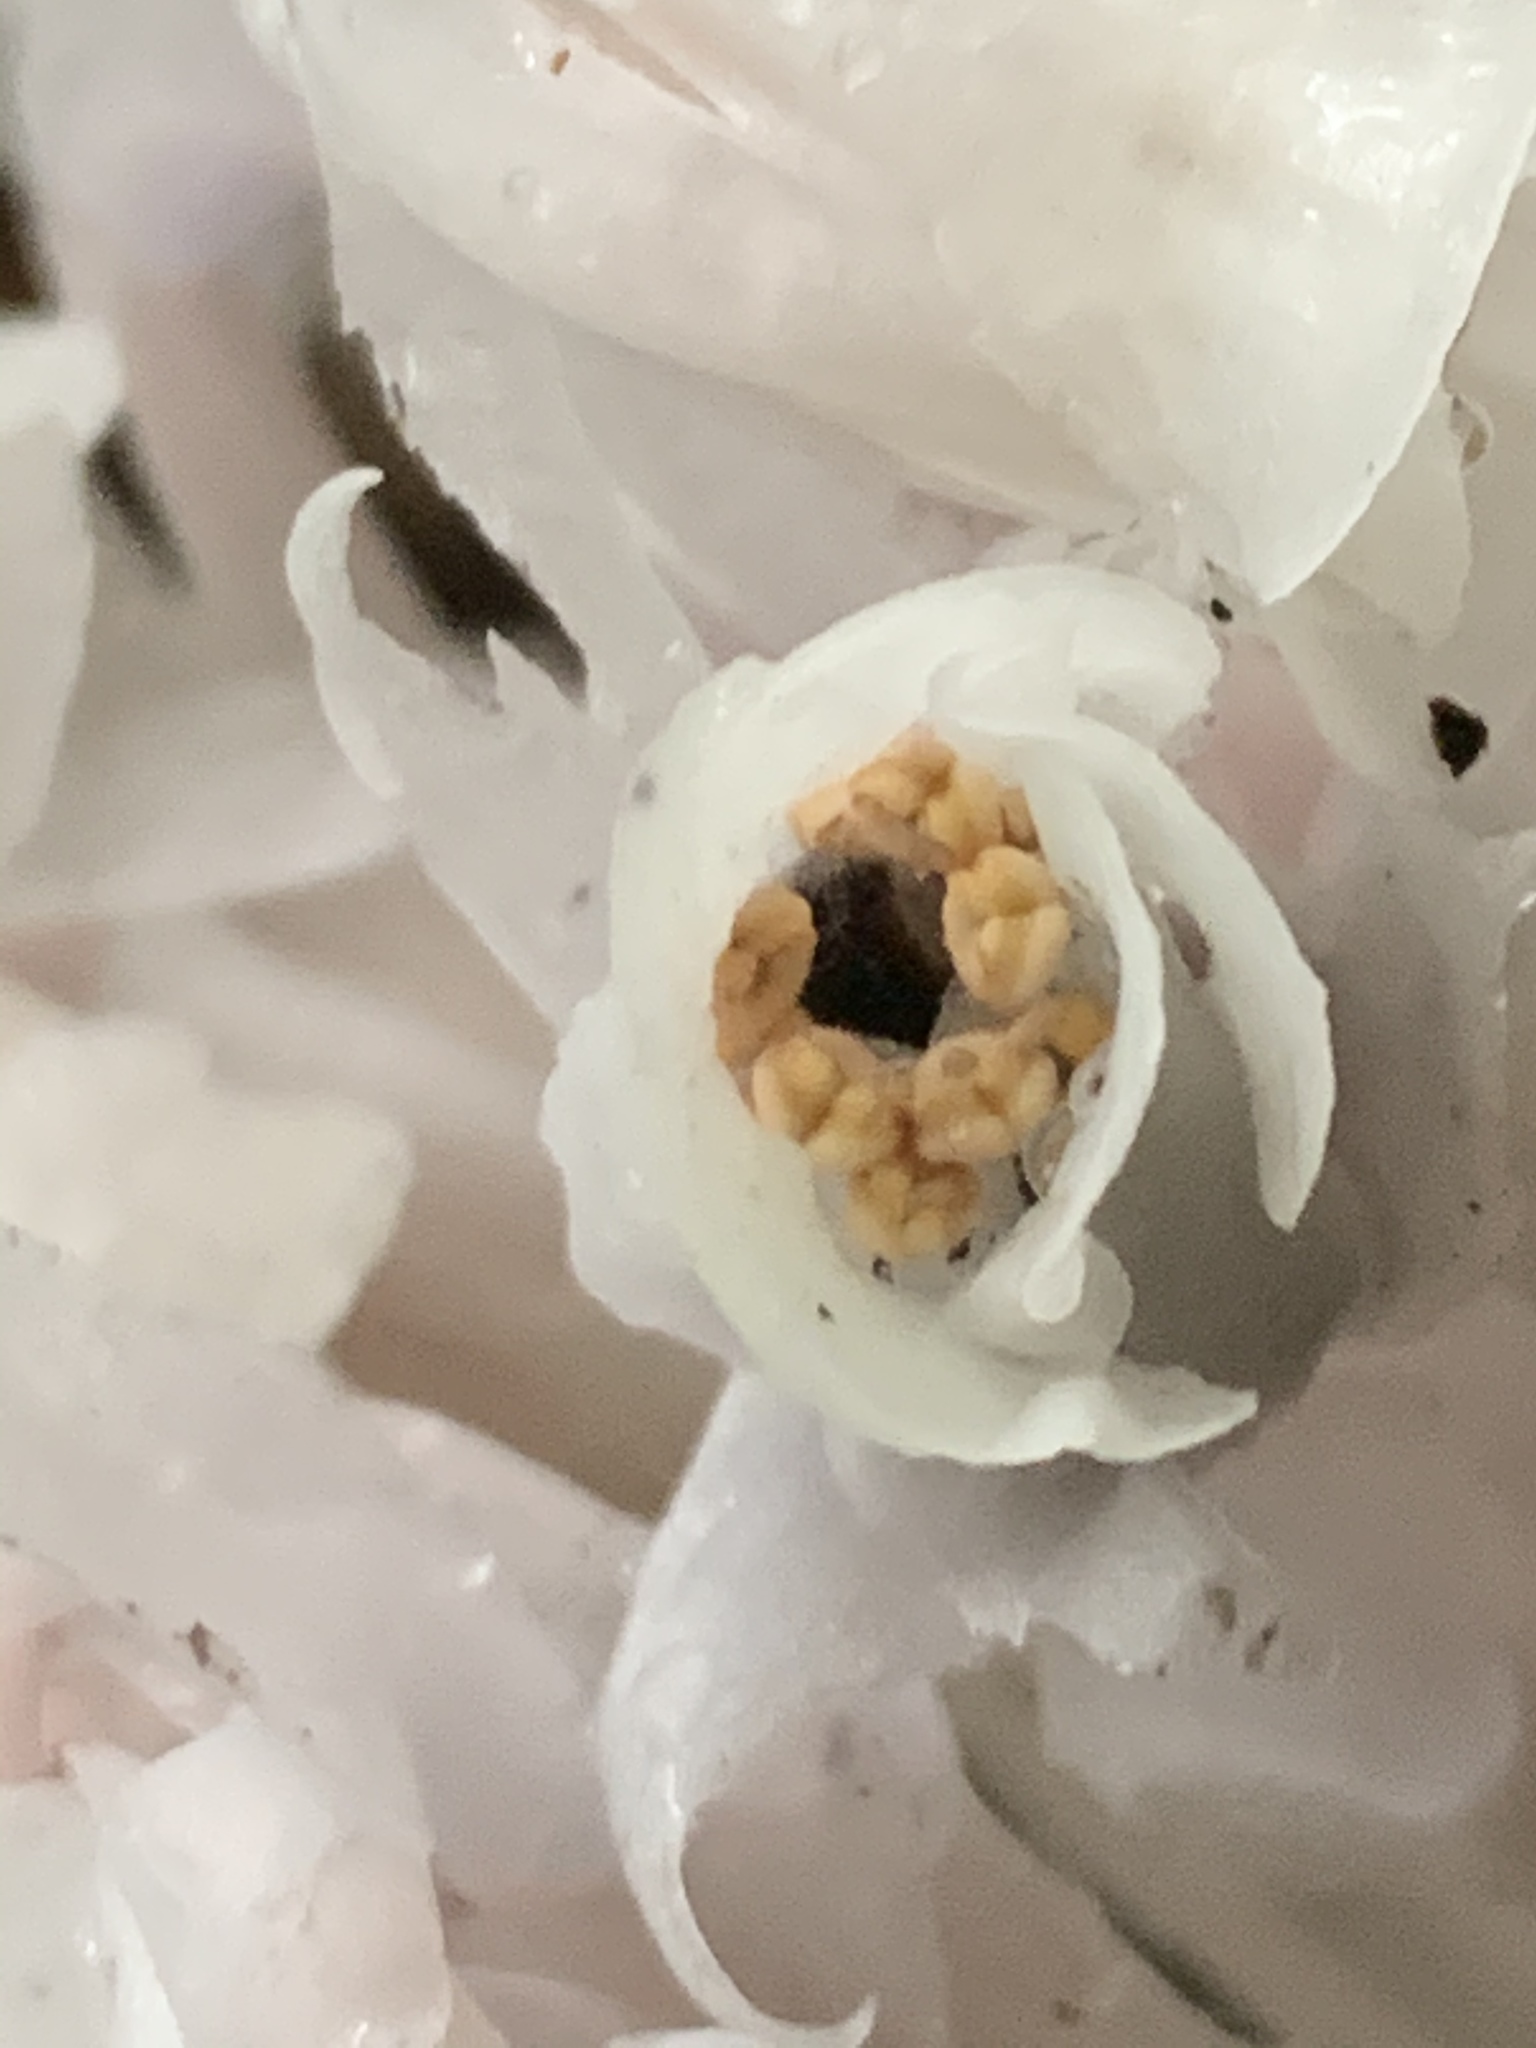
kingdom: Plantae
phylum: Tracheophyta
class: Magnoliopsida
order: Ericales
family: Ericaceae
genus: Monotropa
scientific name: Monotropa uniflora
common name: Convulsion root
